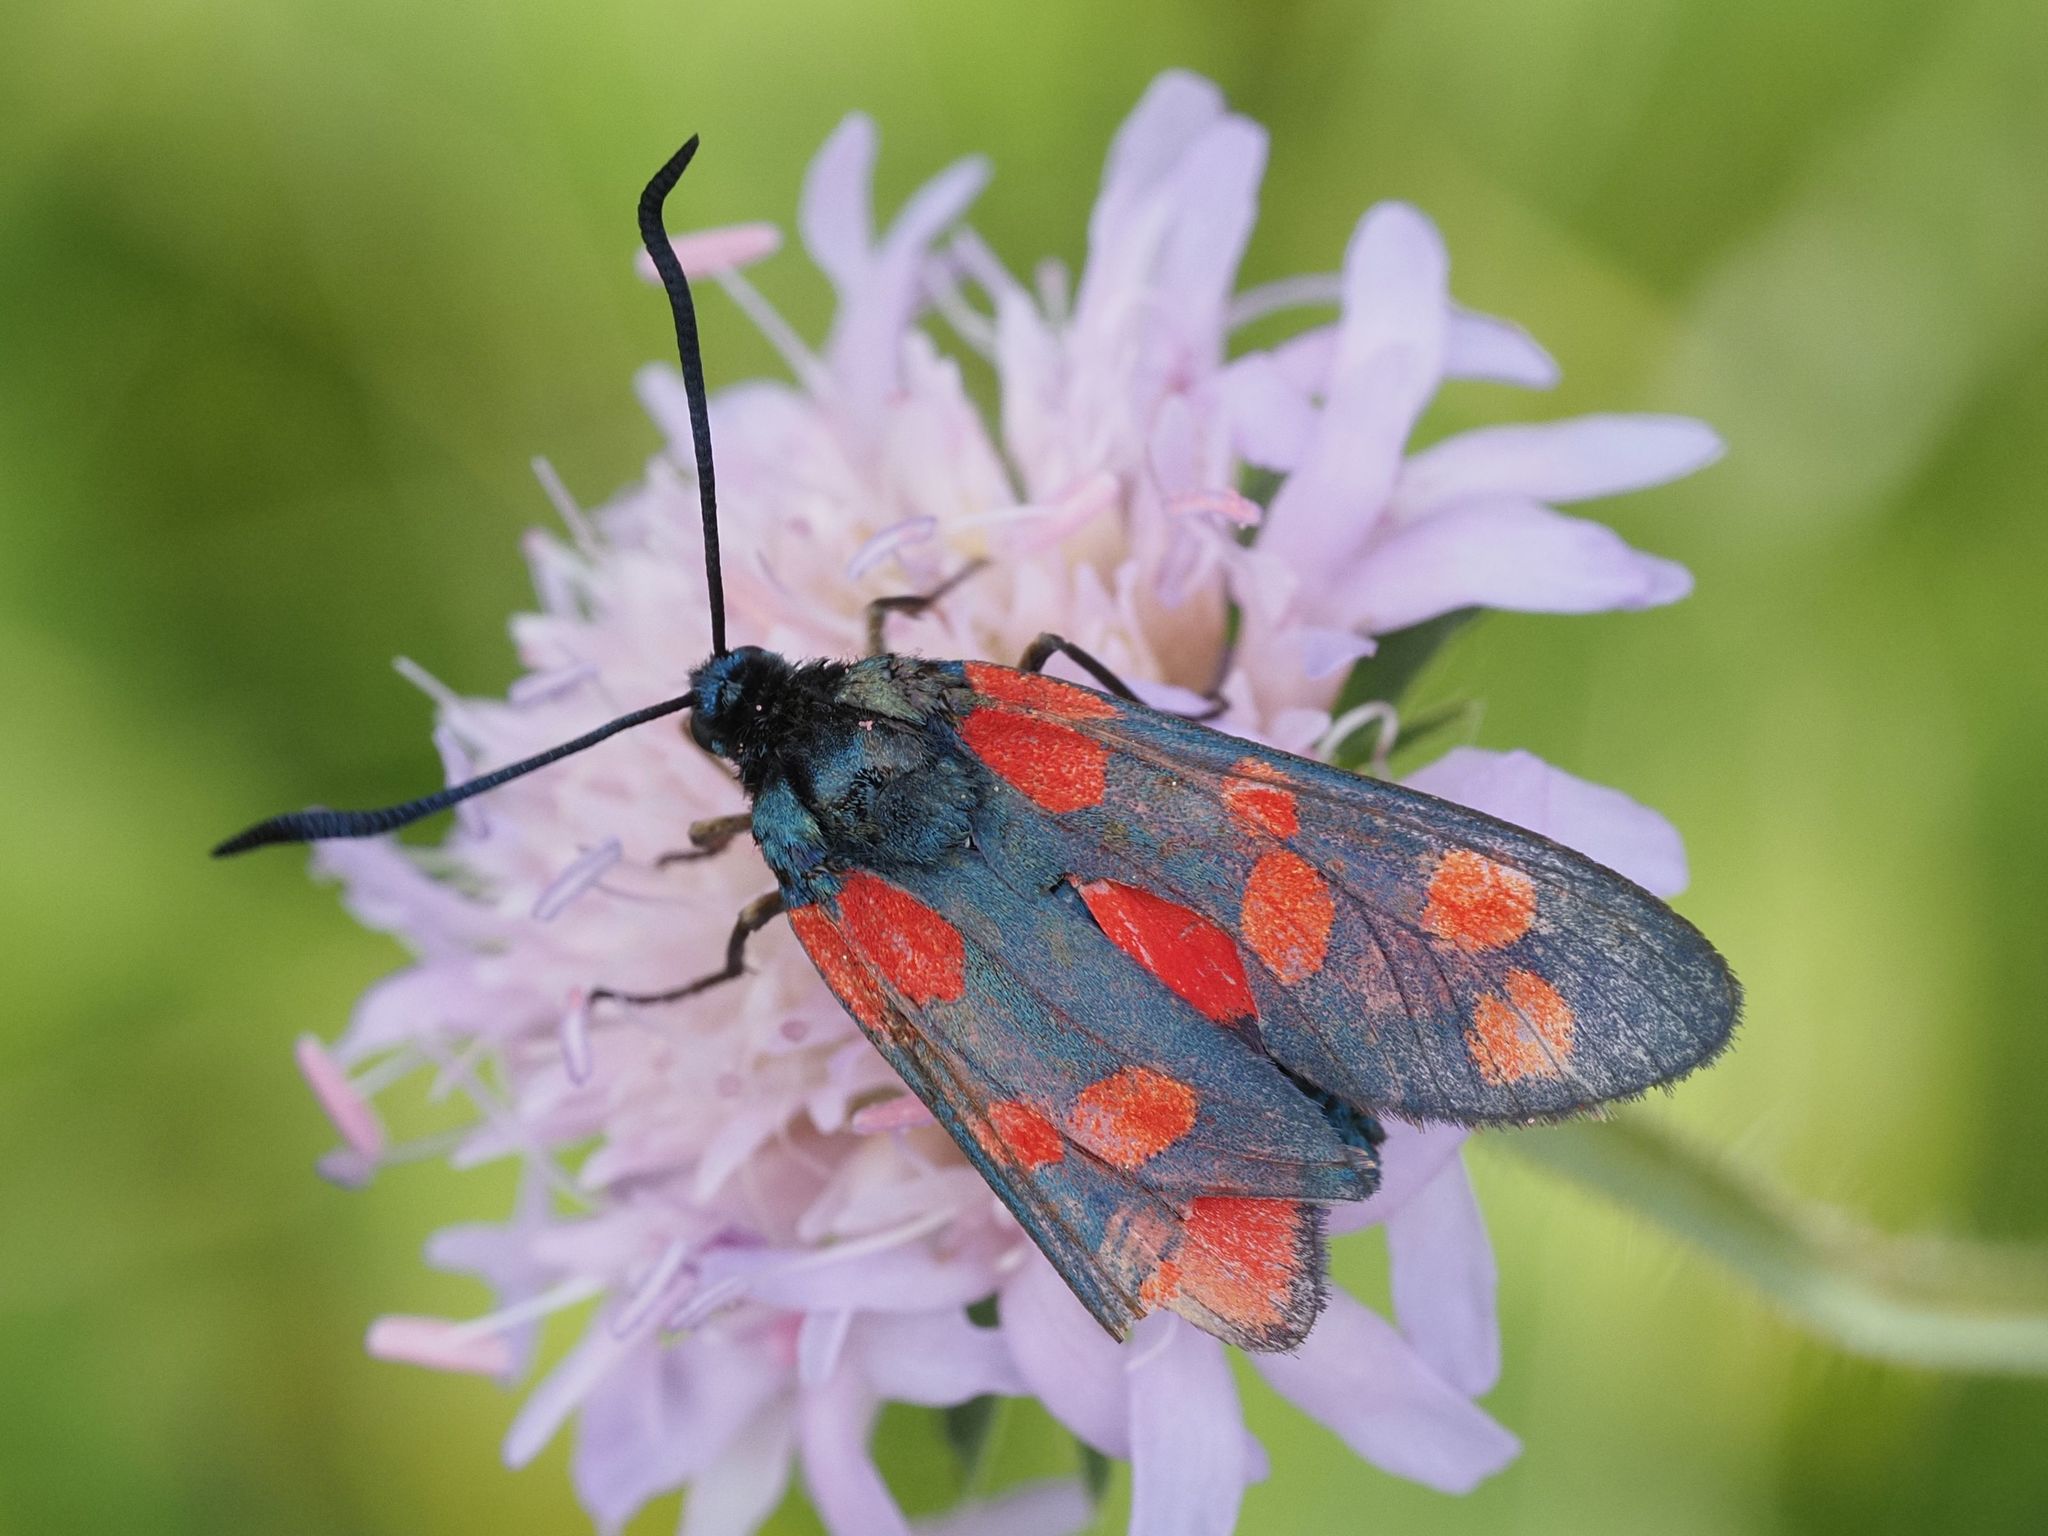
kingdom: Animalia
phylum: Arthropoda
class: Insecta
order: Lepidoptera
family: Zygaenidae
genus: Zygaena
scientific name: Zygaena filipendulae
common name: Six-spot burnet
